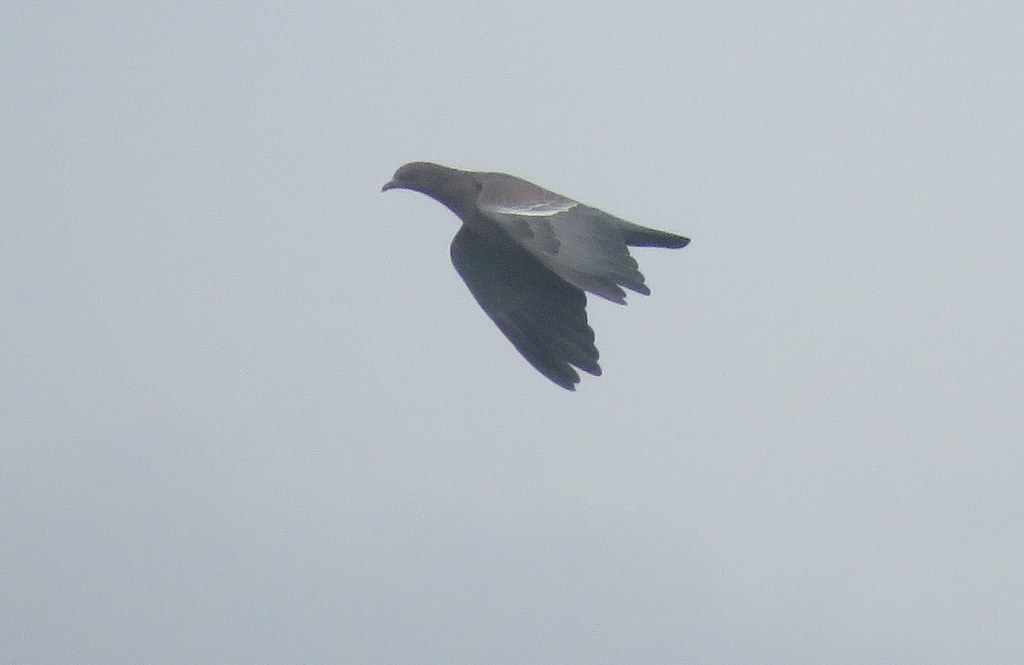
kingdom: Animalia
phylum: Chordata
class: Aves
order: Columbiformes
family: Columbidae
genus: Patagioenas
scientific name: Patagioenas picazuro
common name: Picazuro pigeon
